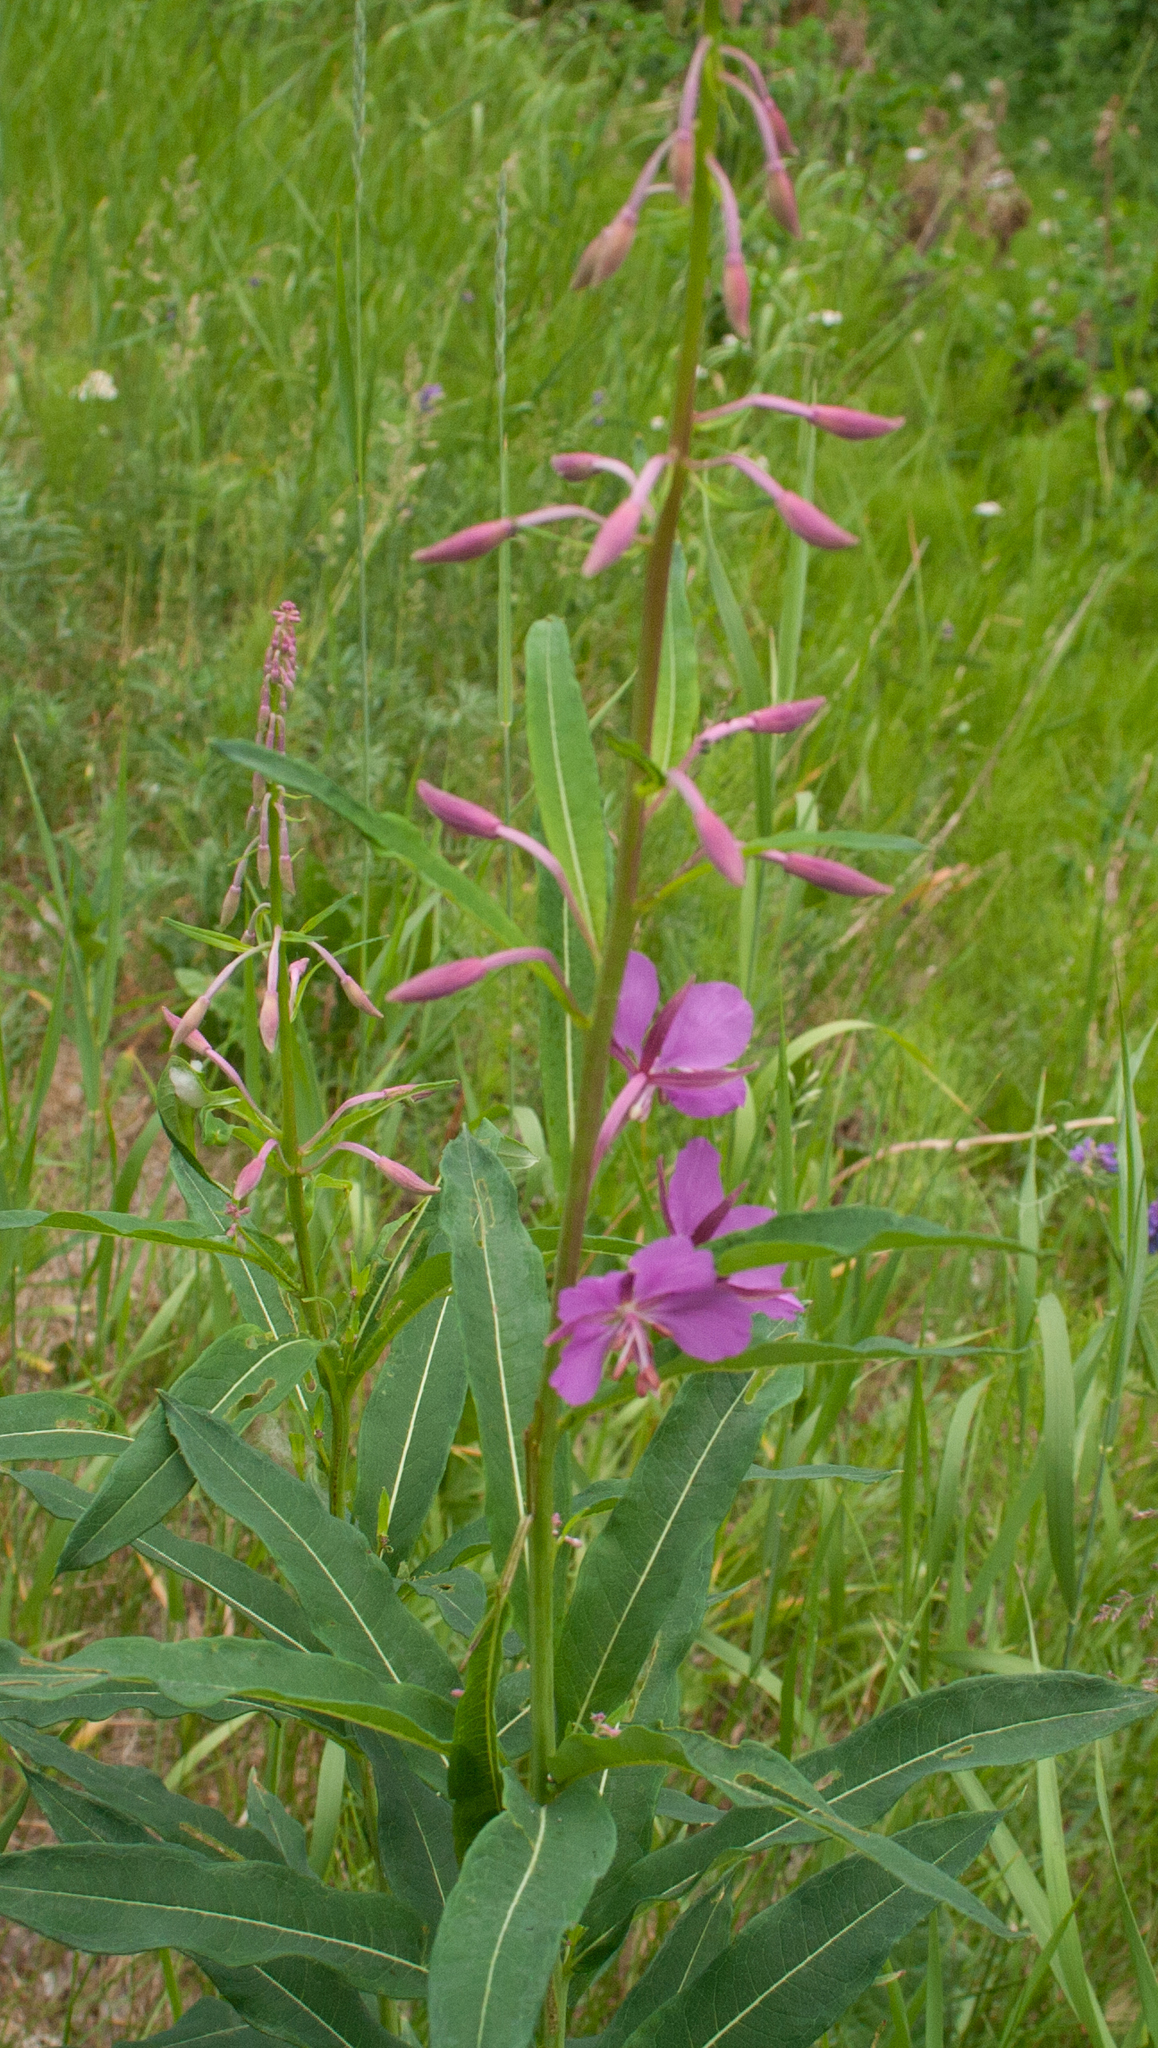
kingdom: Plantae
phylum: Tracheophyta
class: Magnoliopsida
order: Myrtales
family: Onagraceae
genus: Chamaenerion
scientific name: Chamaenerion angustifolium
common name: Fireweed
